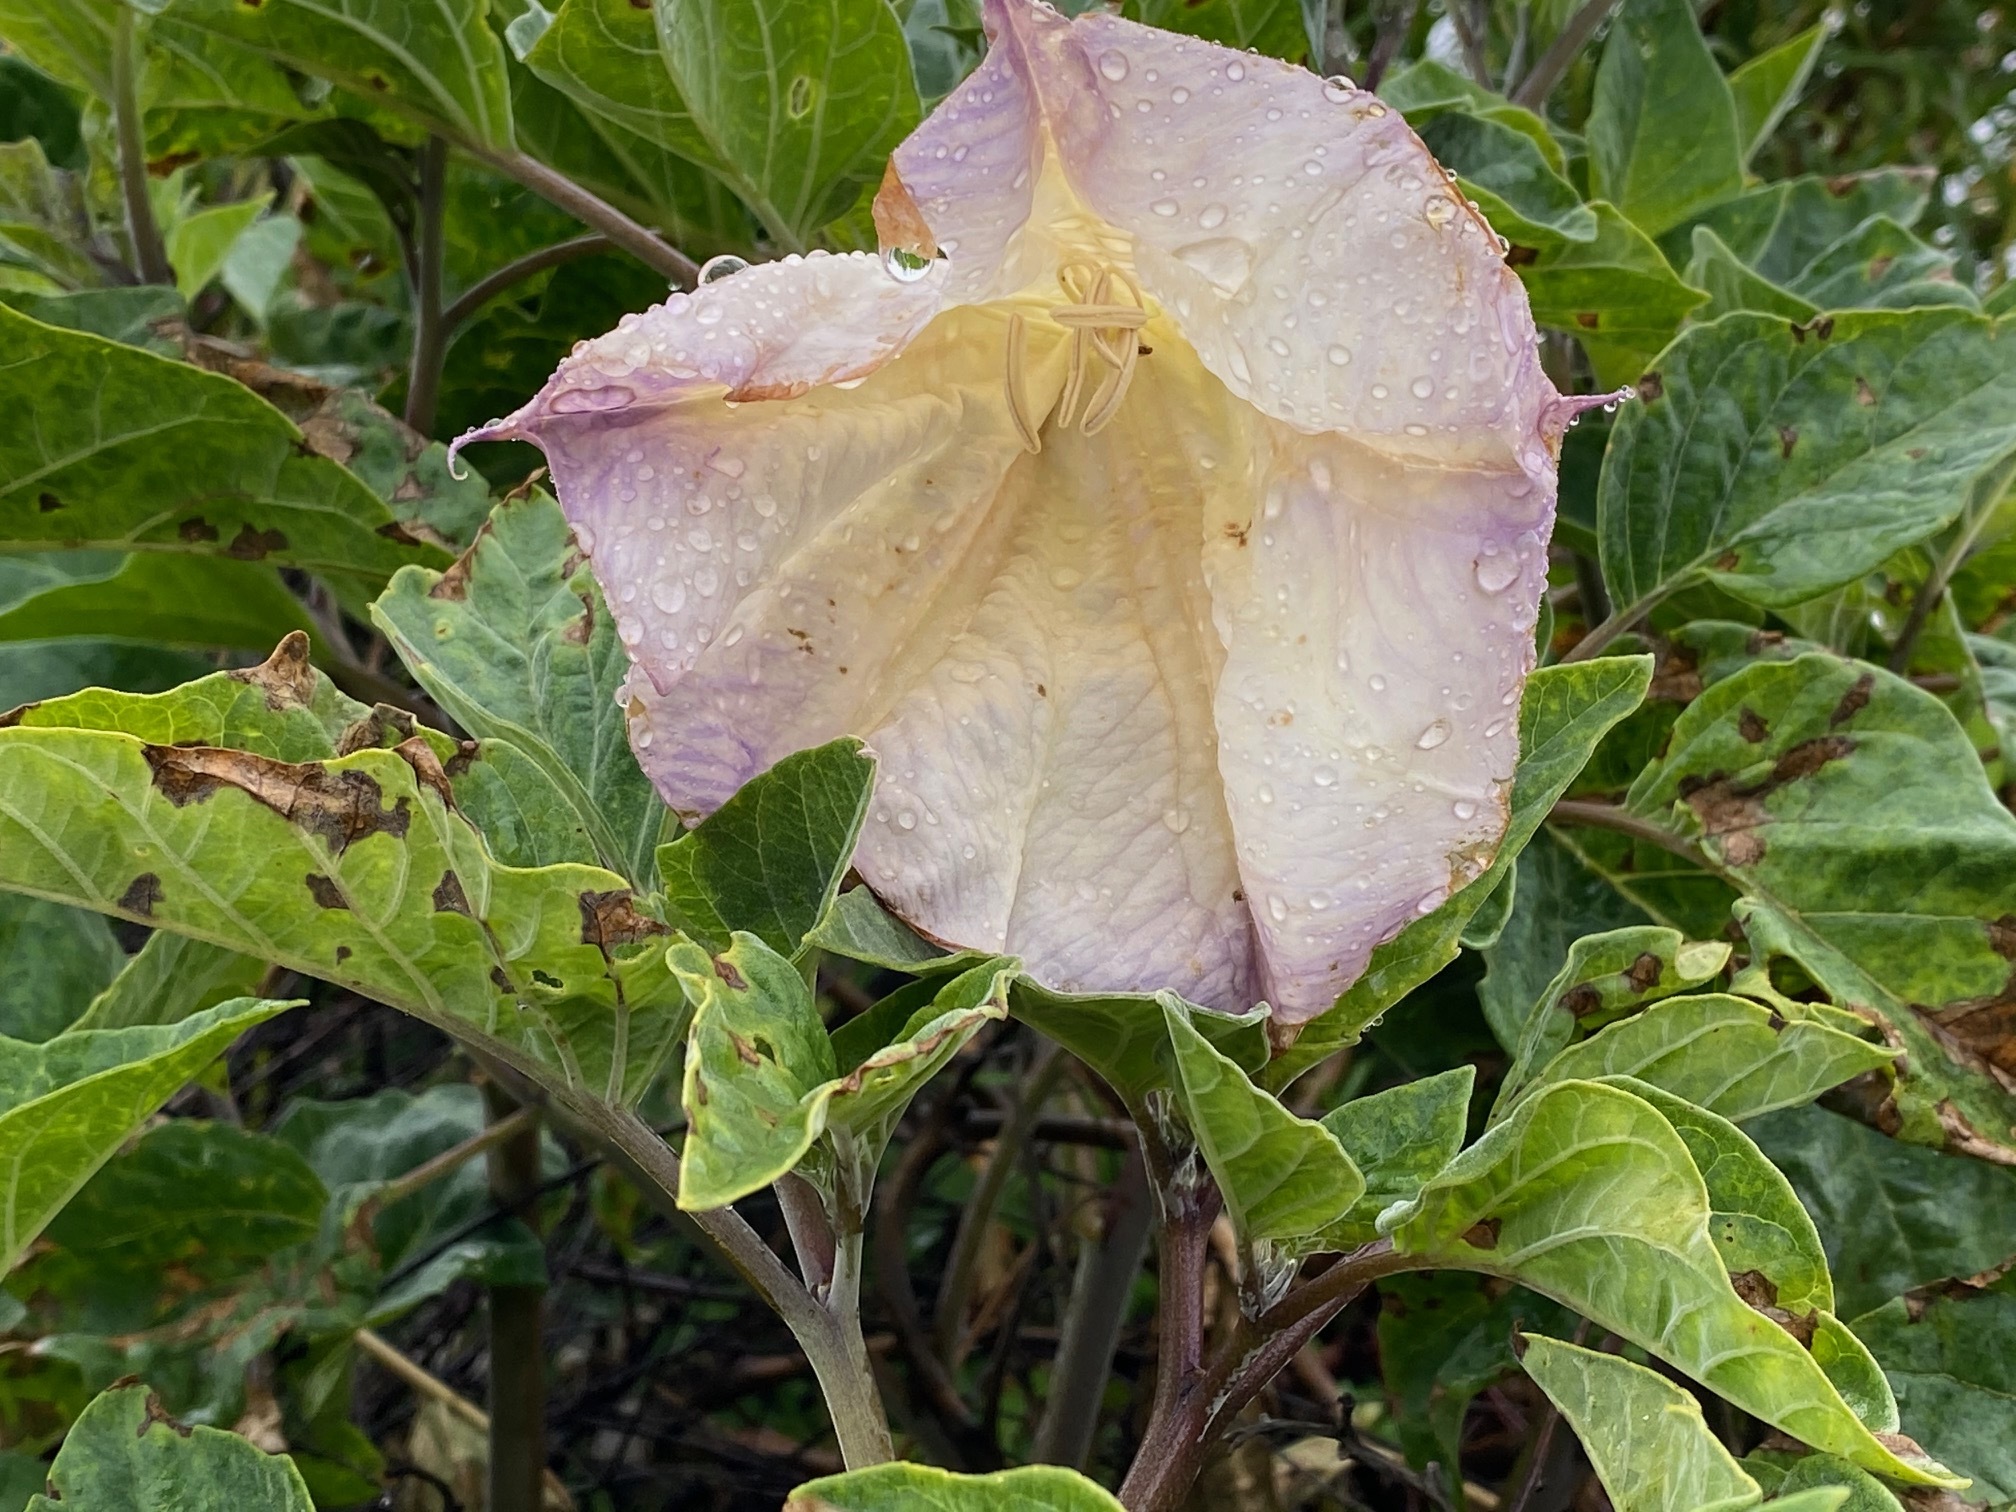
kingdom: Plantae
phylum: Tracheophyta
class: Magnoliopsida
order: Solanales
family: Solanaceae
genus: Datura
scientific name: Datura wrightii
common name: Sacred thorn-apple
